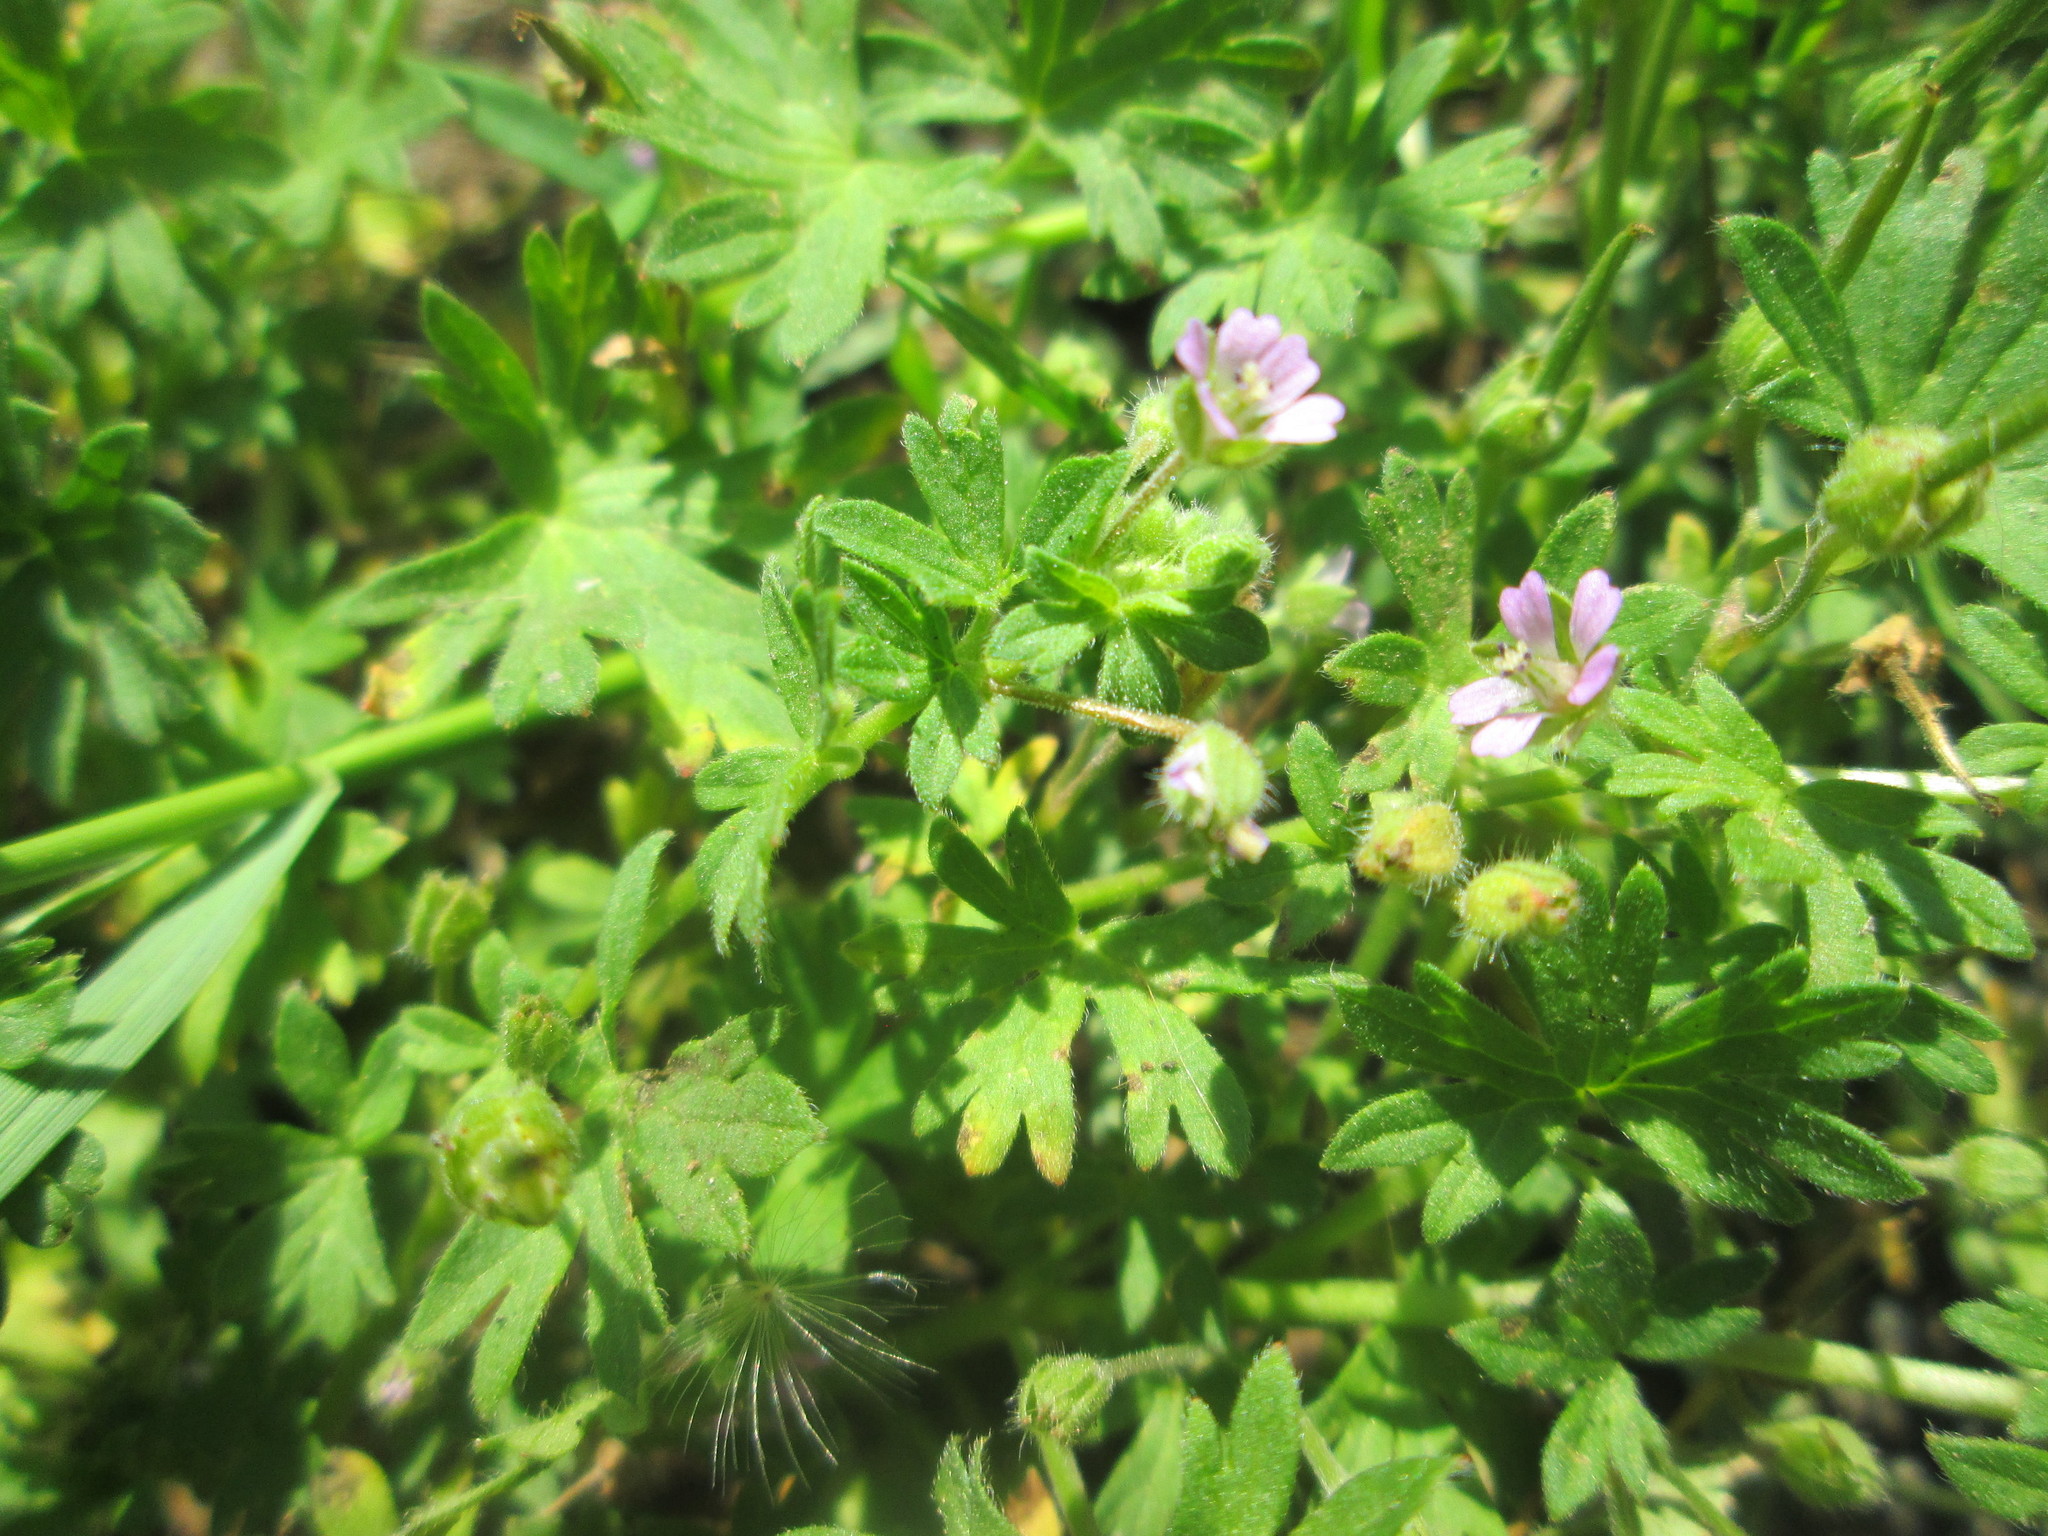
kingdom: Plantae
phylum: Tracheophyta
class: Magnoliopsida
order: Geraniales
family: Geraniaceae
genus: Geranium
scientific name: Geranium pusillum
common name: Small geranium
